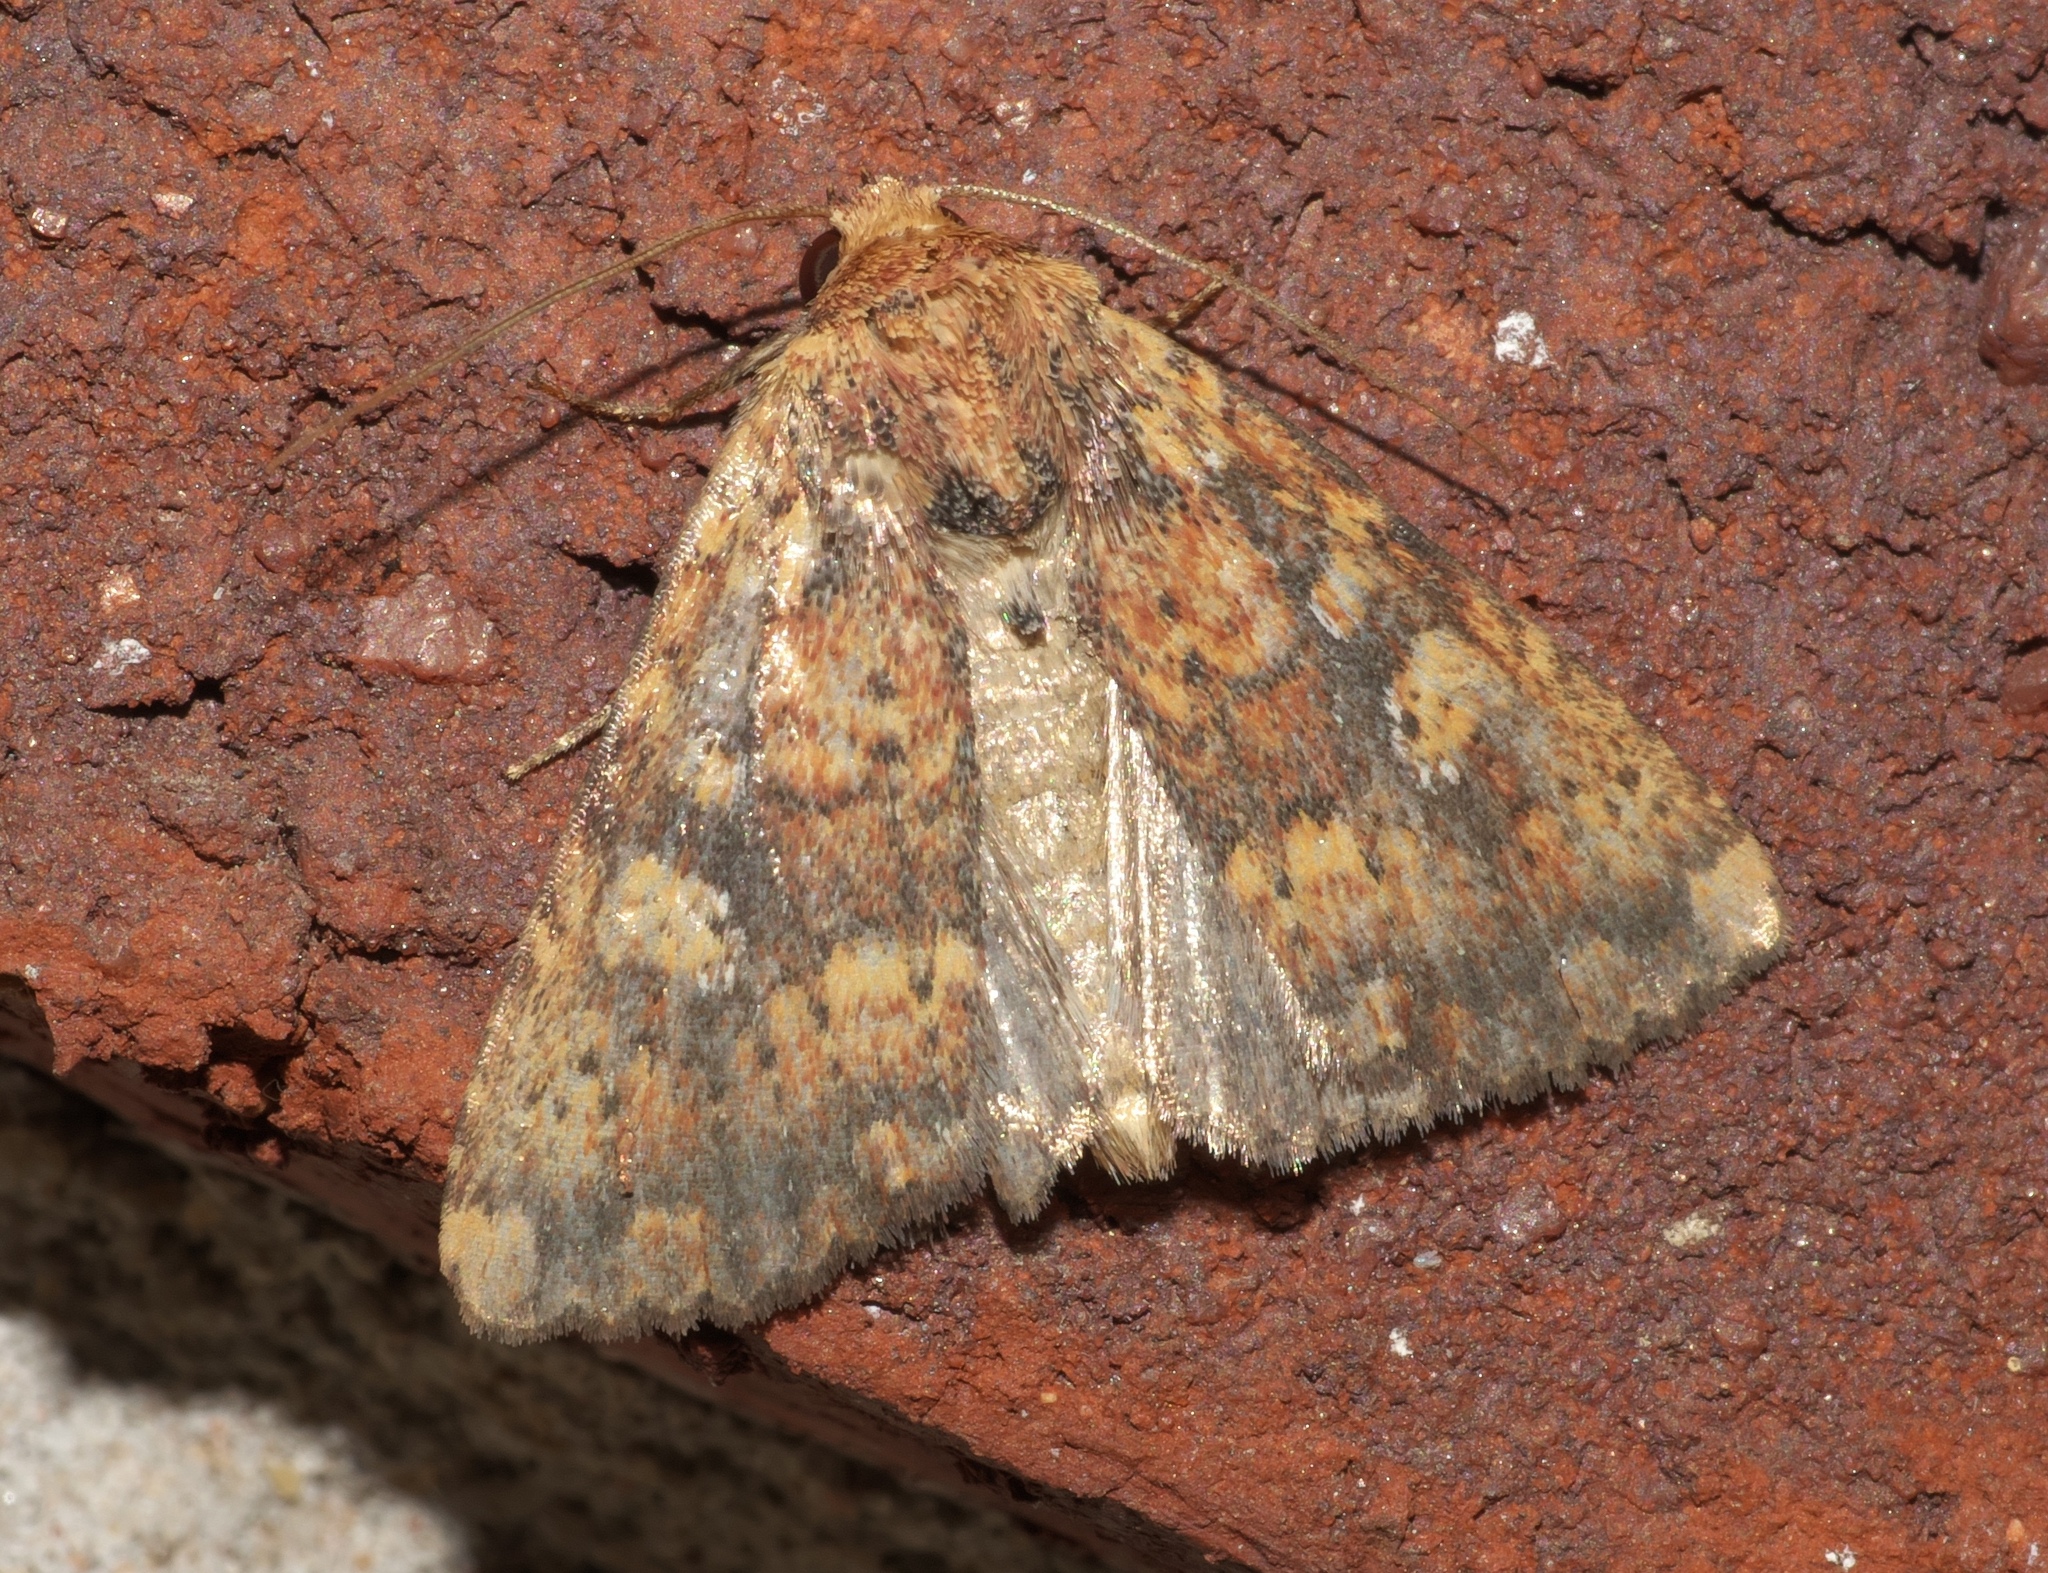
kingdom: Animalia
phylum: Arthropoda
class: Insecta
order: Lepidoptera
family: Noctuidae
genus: Perigea
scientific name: Perigea xanthioides
